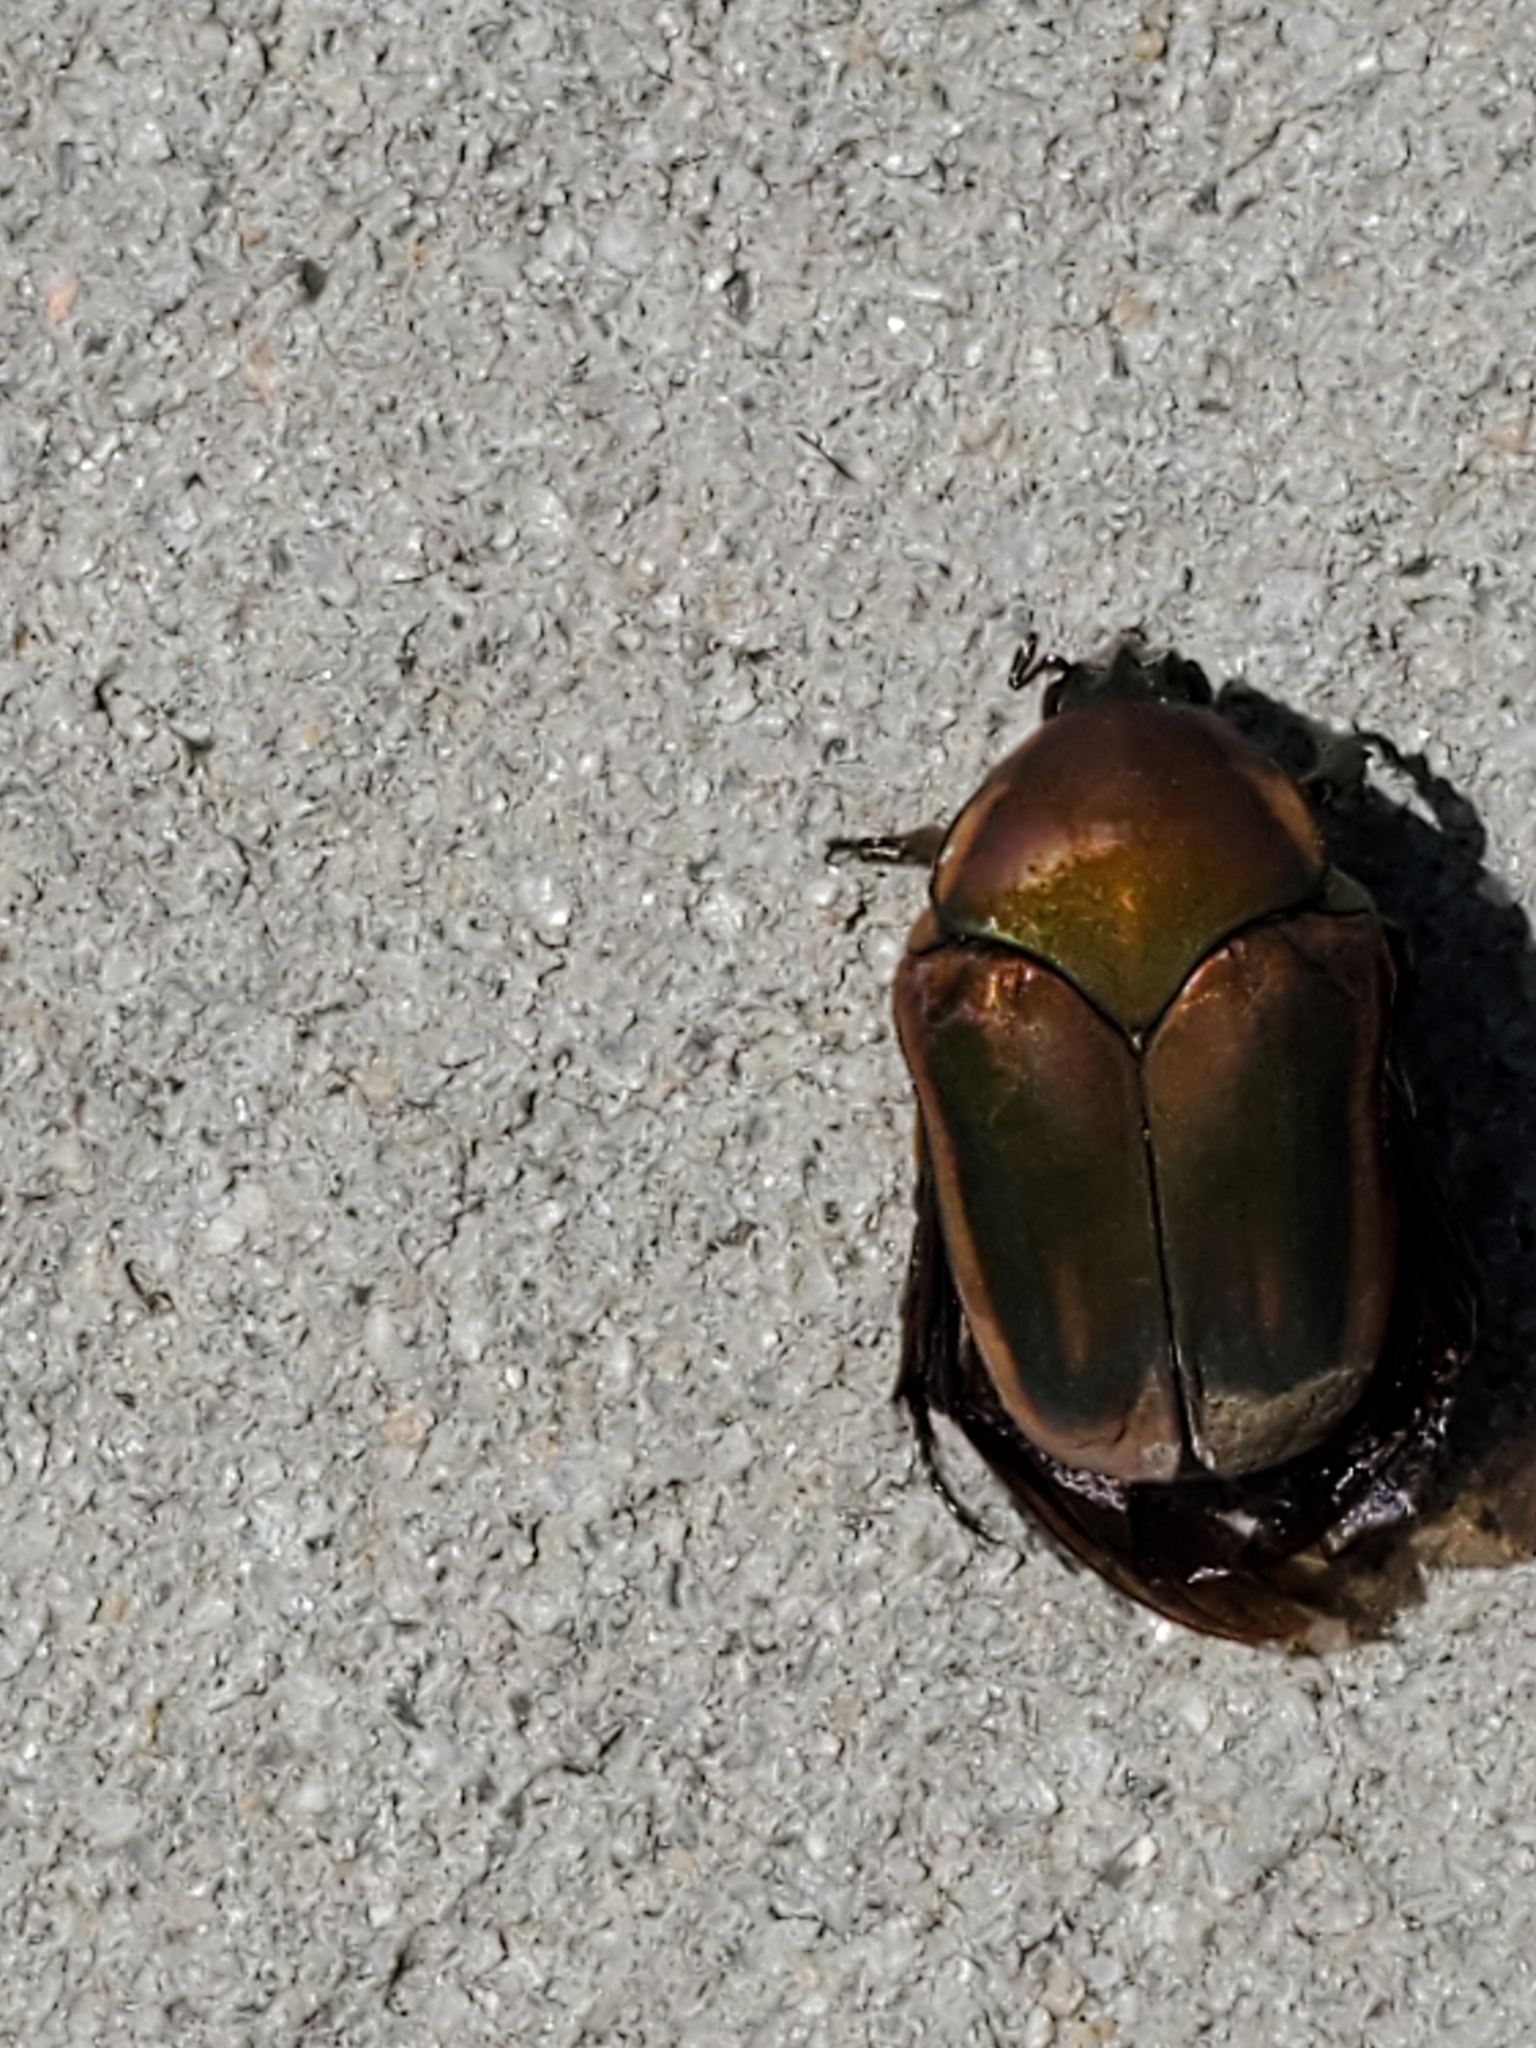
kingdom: Animalia
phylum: Arthropoda
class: Insecta
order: Coleoptera
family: Scarabaeidae
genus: Cotinis
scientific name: Cotinis nitida
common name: Common green june beetle
